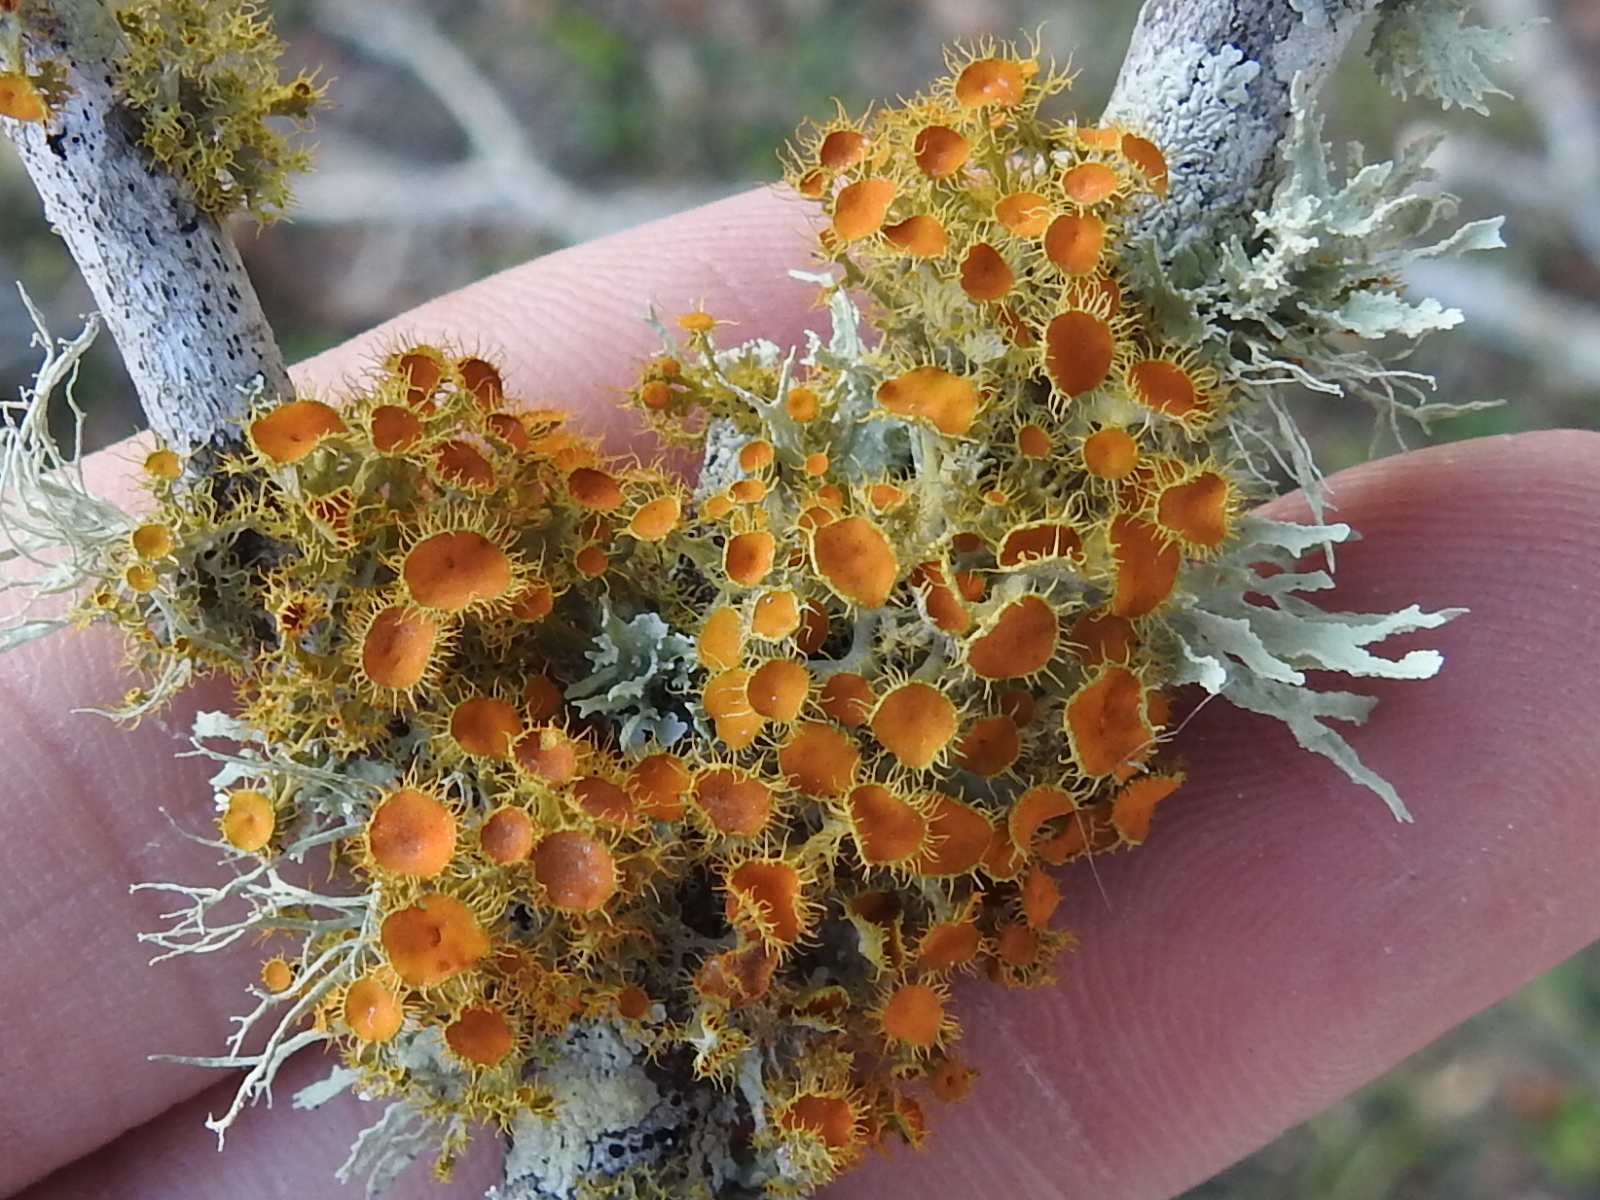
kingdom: Fungi
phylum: Ascomycota
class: Lecanoromycetes
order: Teloschistales
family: Teloschistaceae
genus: Niorma
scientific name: Niorma chrysophthalma
